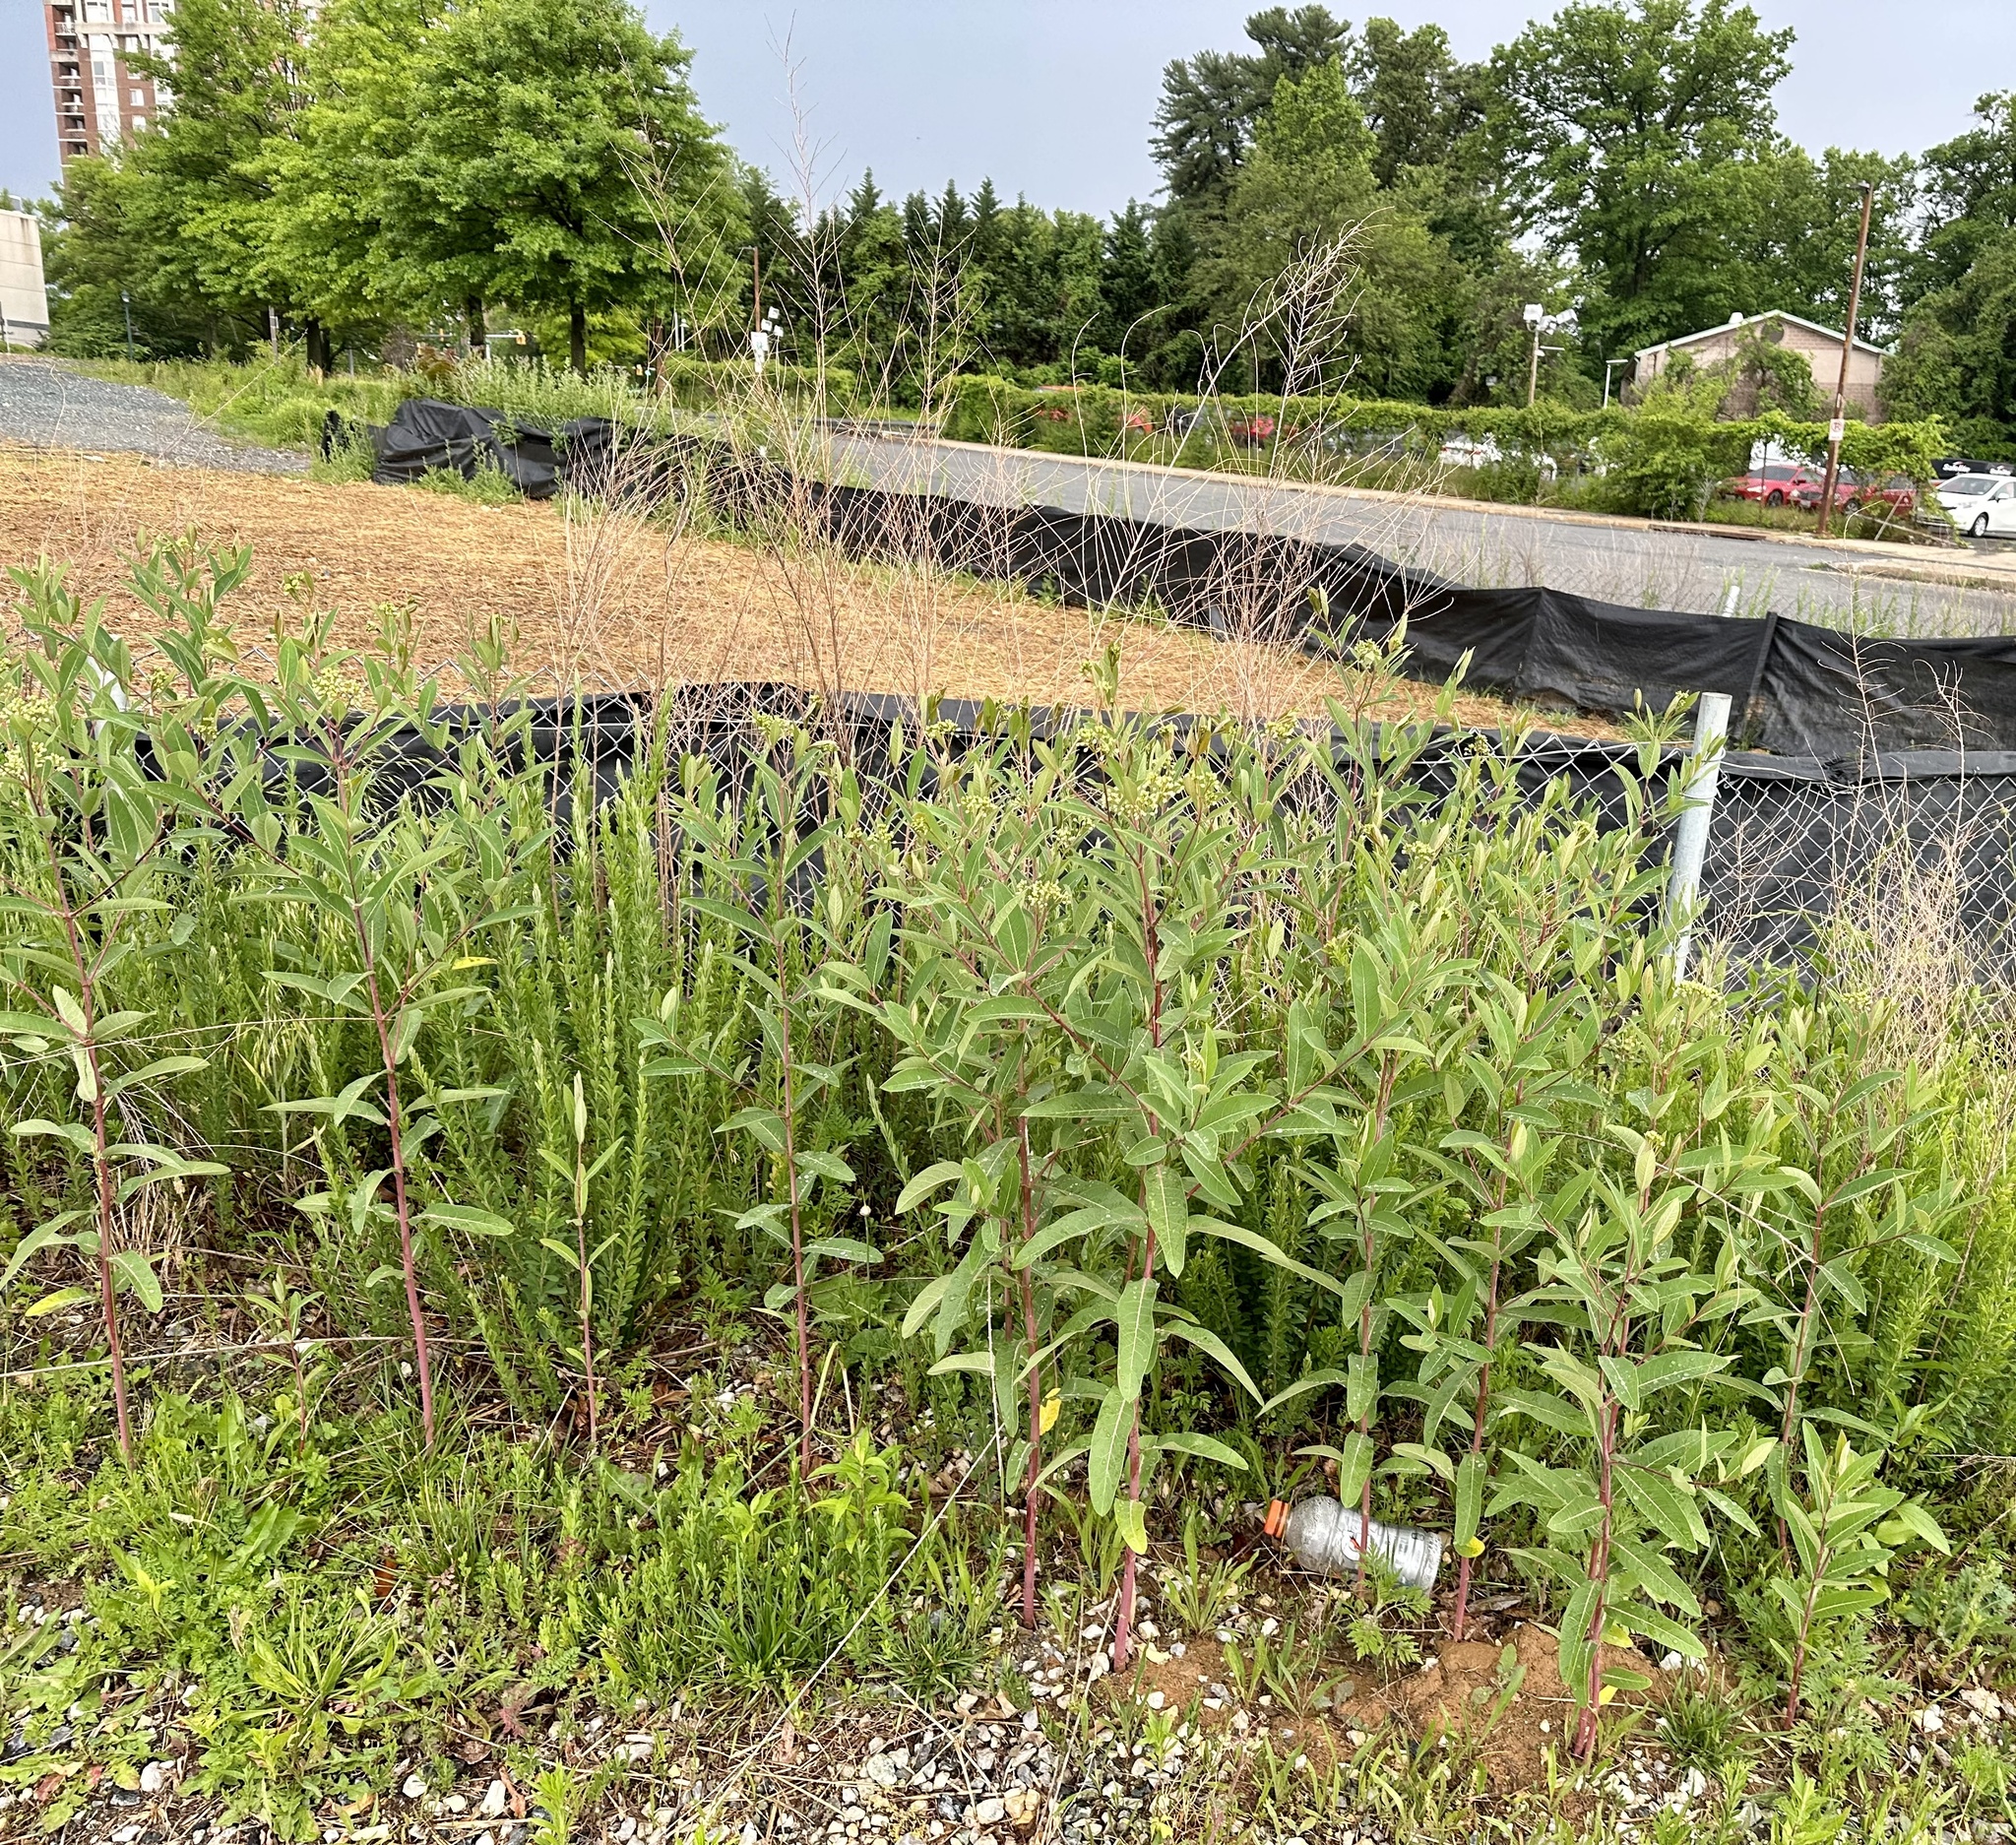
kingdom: Plantae
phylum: Tracheophyta
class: Magnoliopsida
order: Gentianales
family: Apocynaceae
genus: Apocynum
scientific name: Apocynum cannabinum
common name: Hemp dogbane
